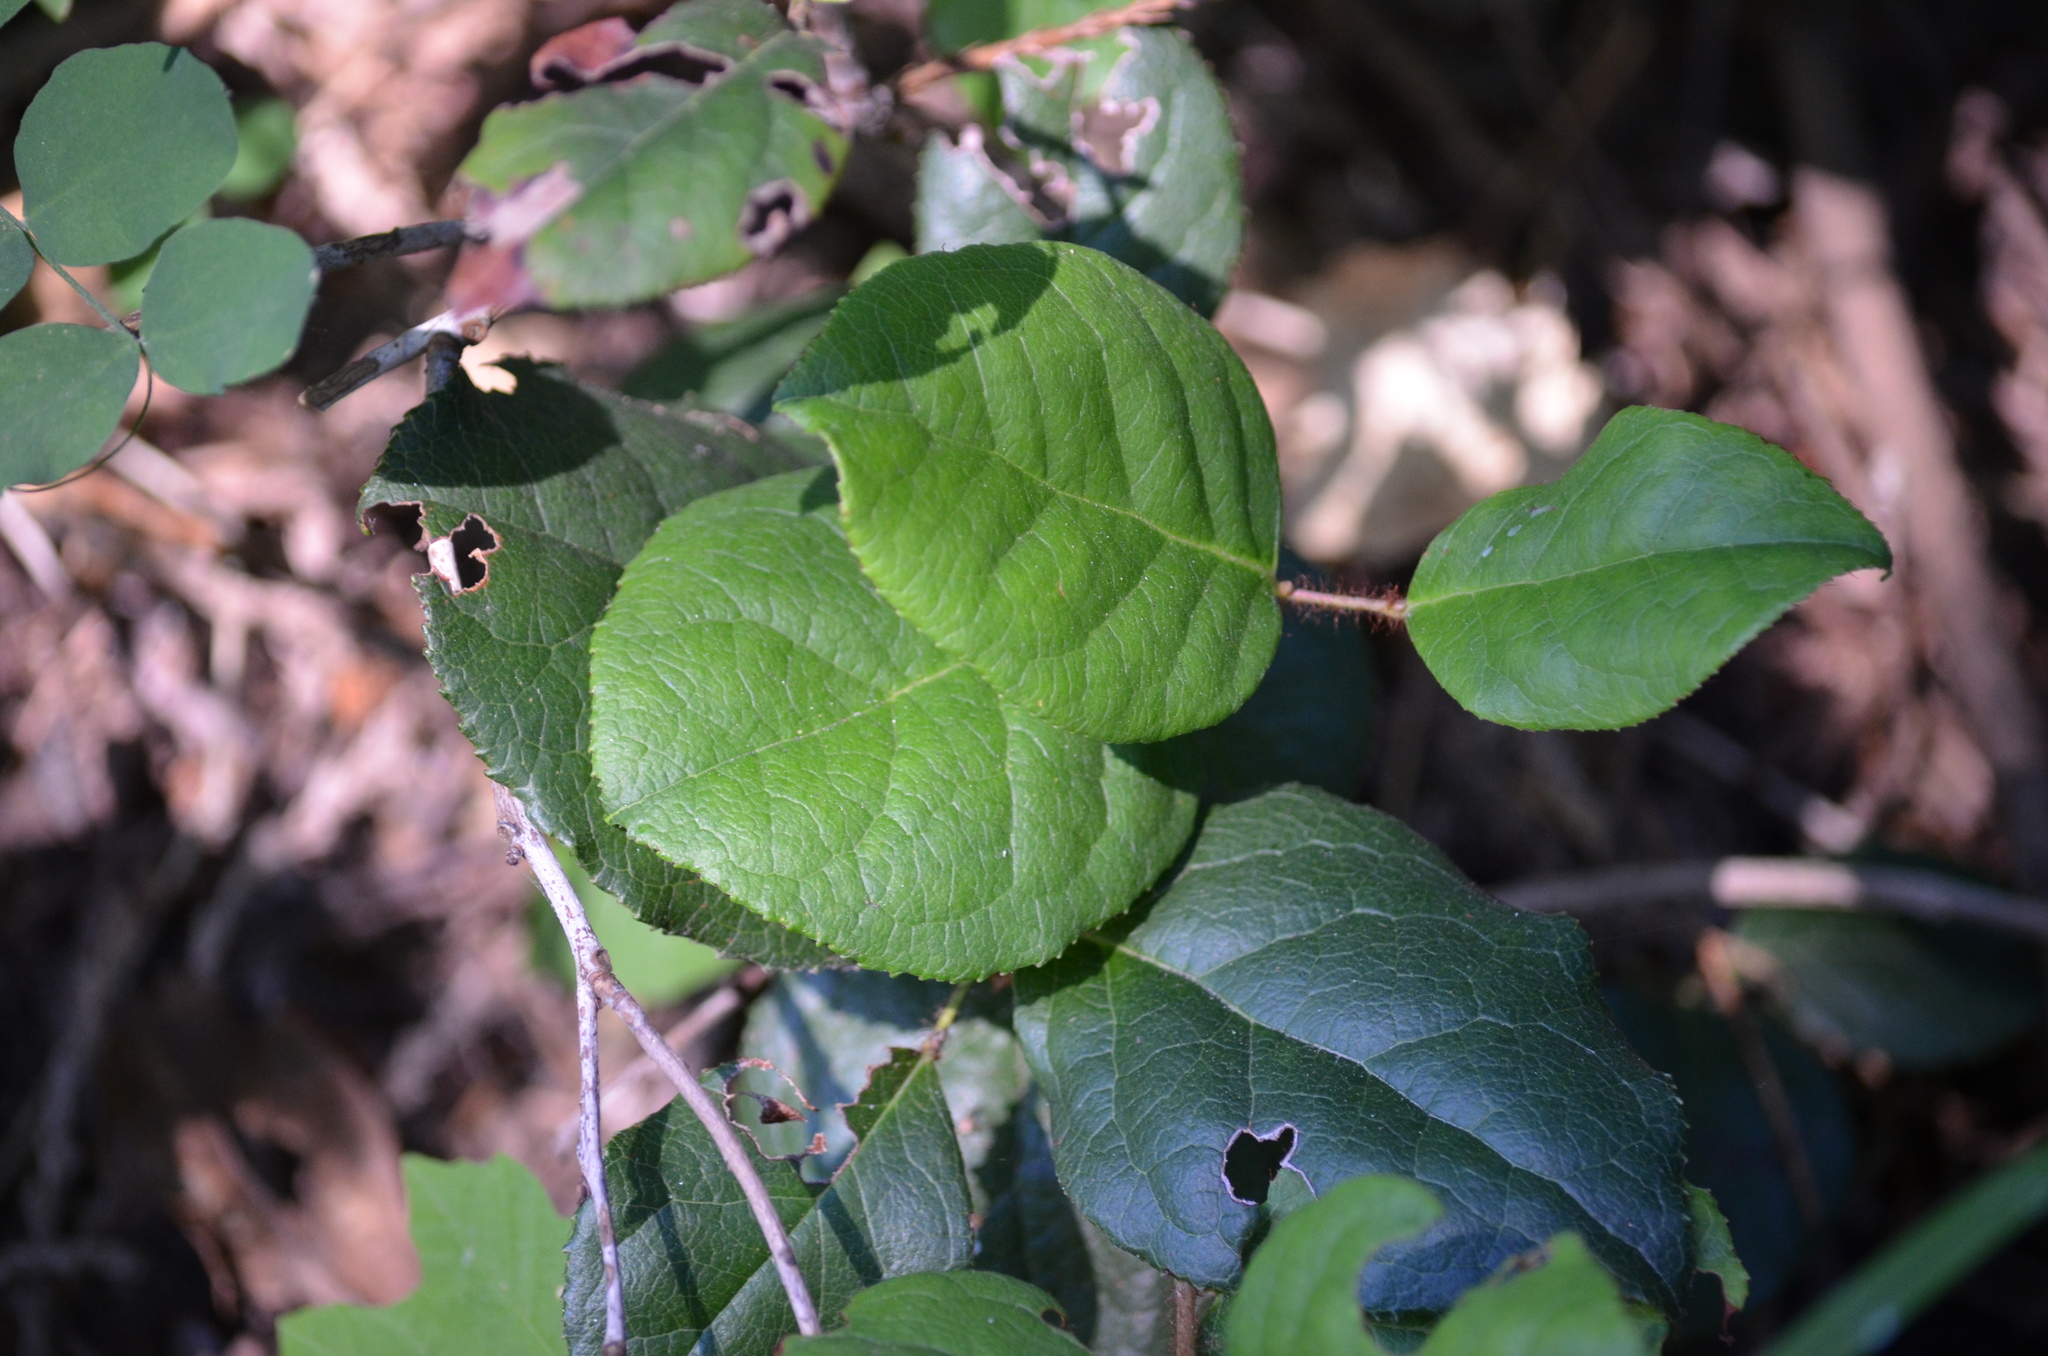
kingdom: Plantae
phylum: Tracheophyta
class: Magnoliopsida
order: Ericales
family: Ericaceae
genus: Gaultheria
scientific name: Gaultheria shallon
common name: Shallon
